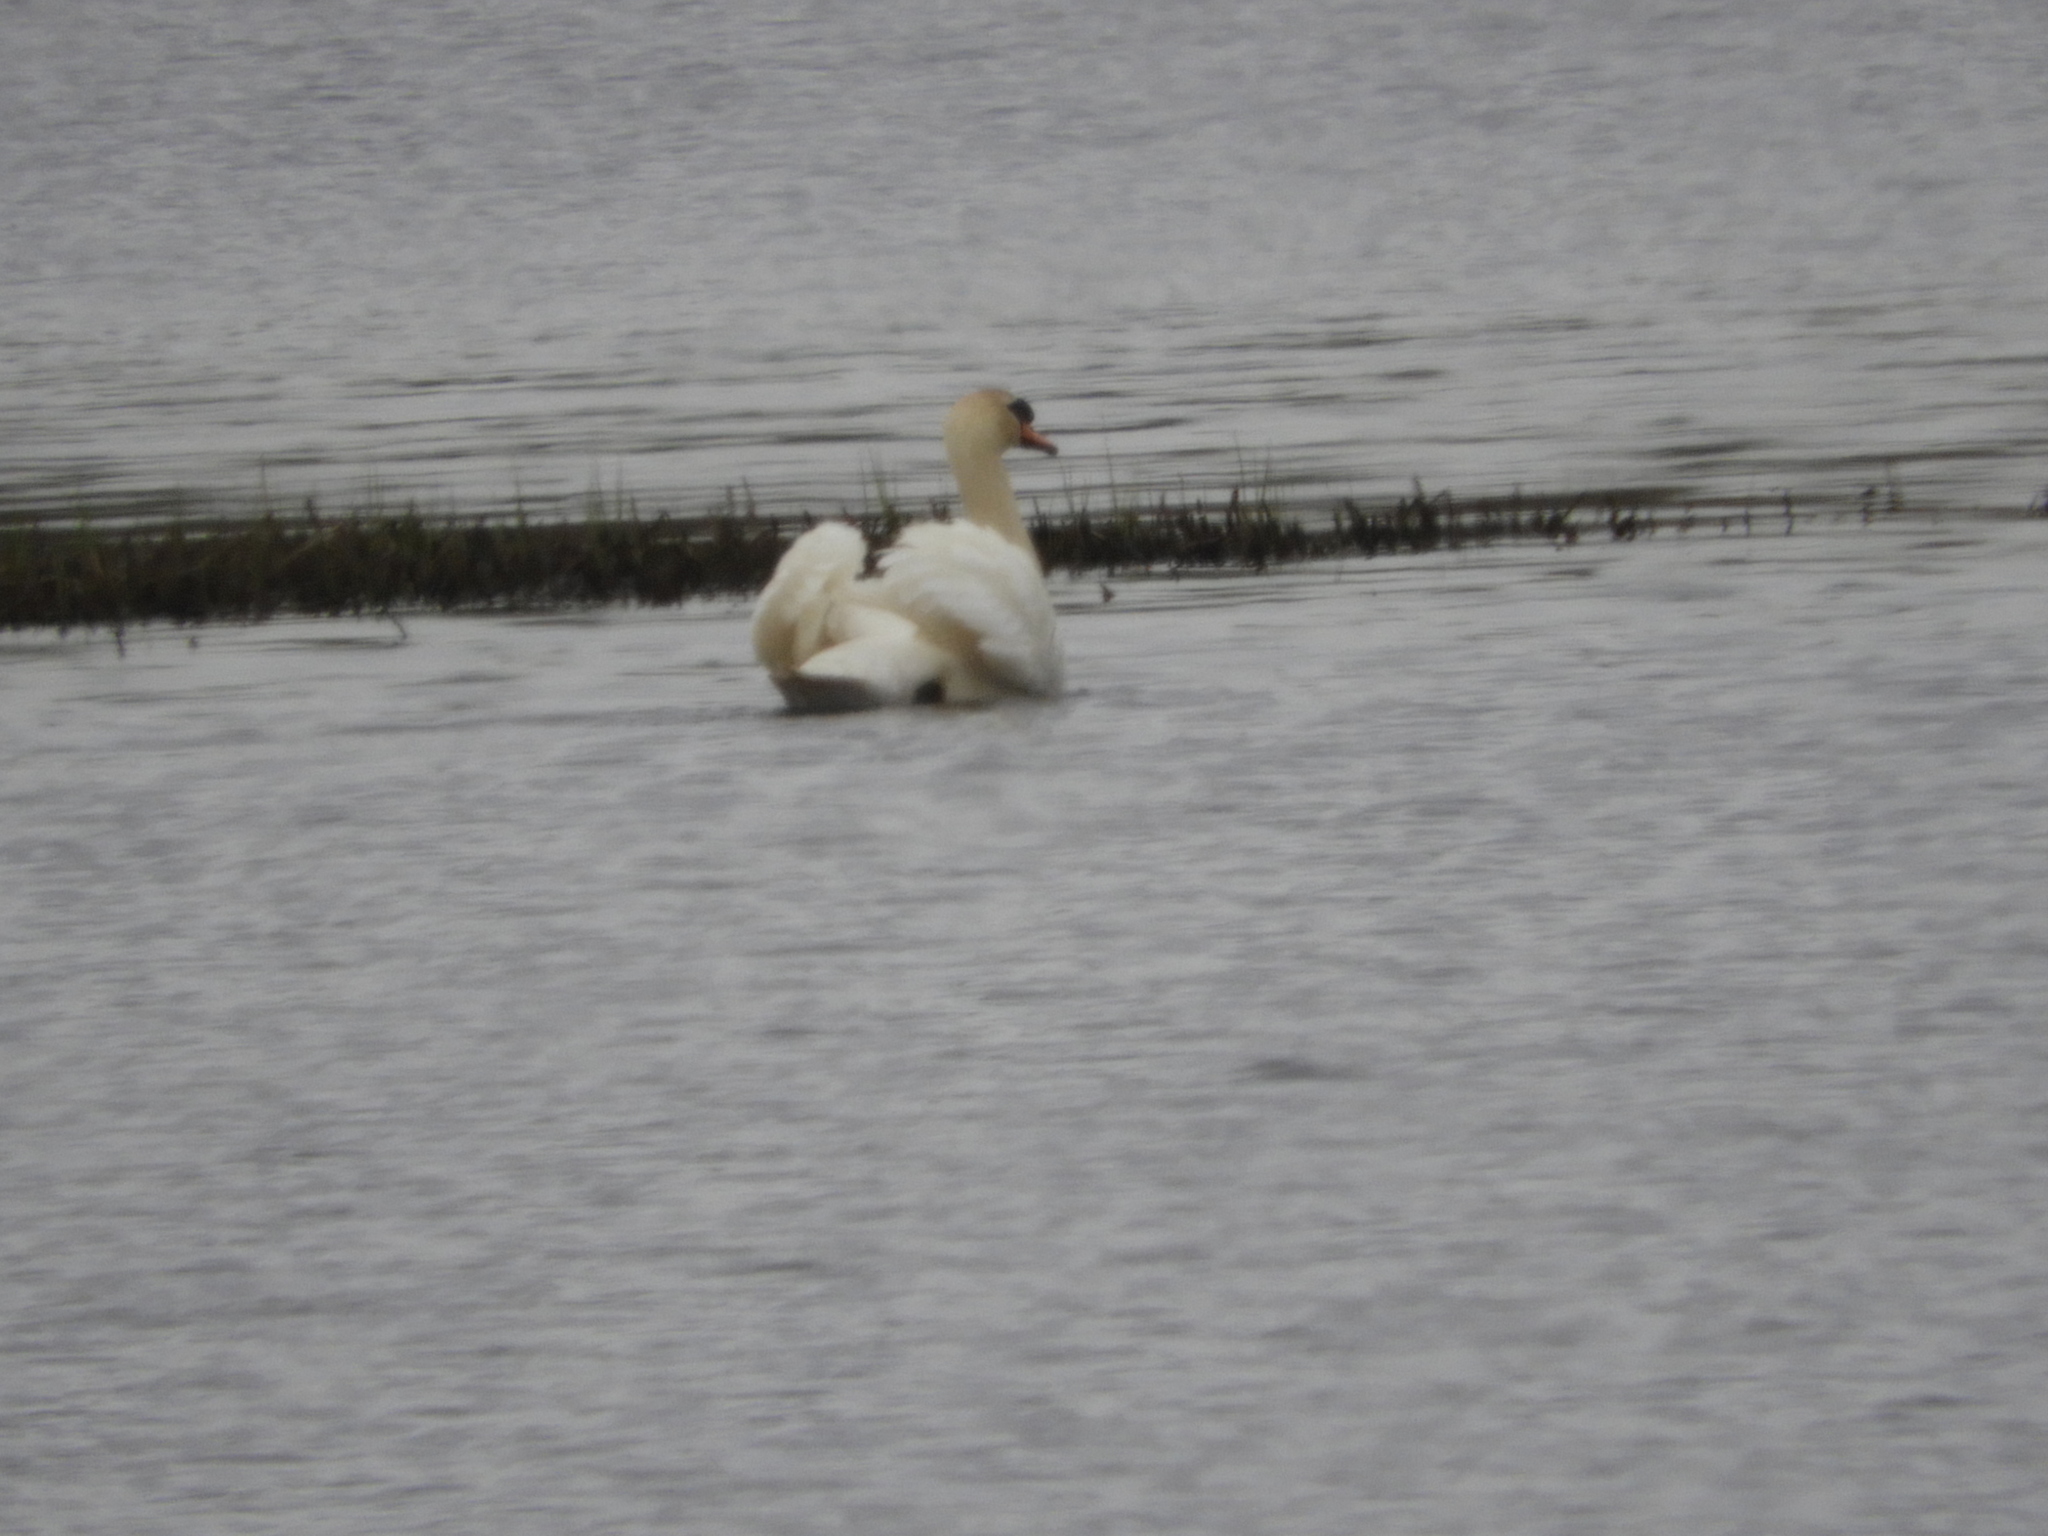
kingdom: Animalia
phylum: Chordata
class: Aves
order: Anseriformes
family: Anatidae
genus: Cygnus
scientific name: Cygnus olor
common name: Mute swan
